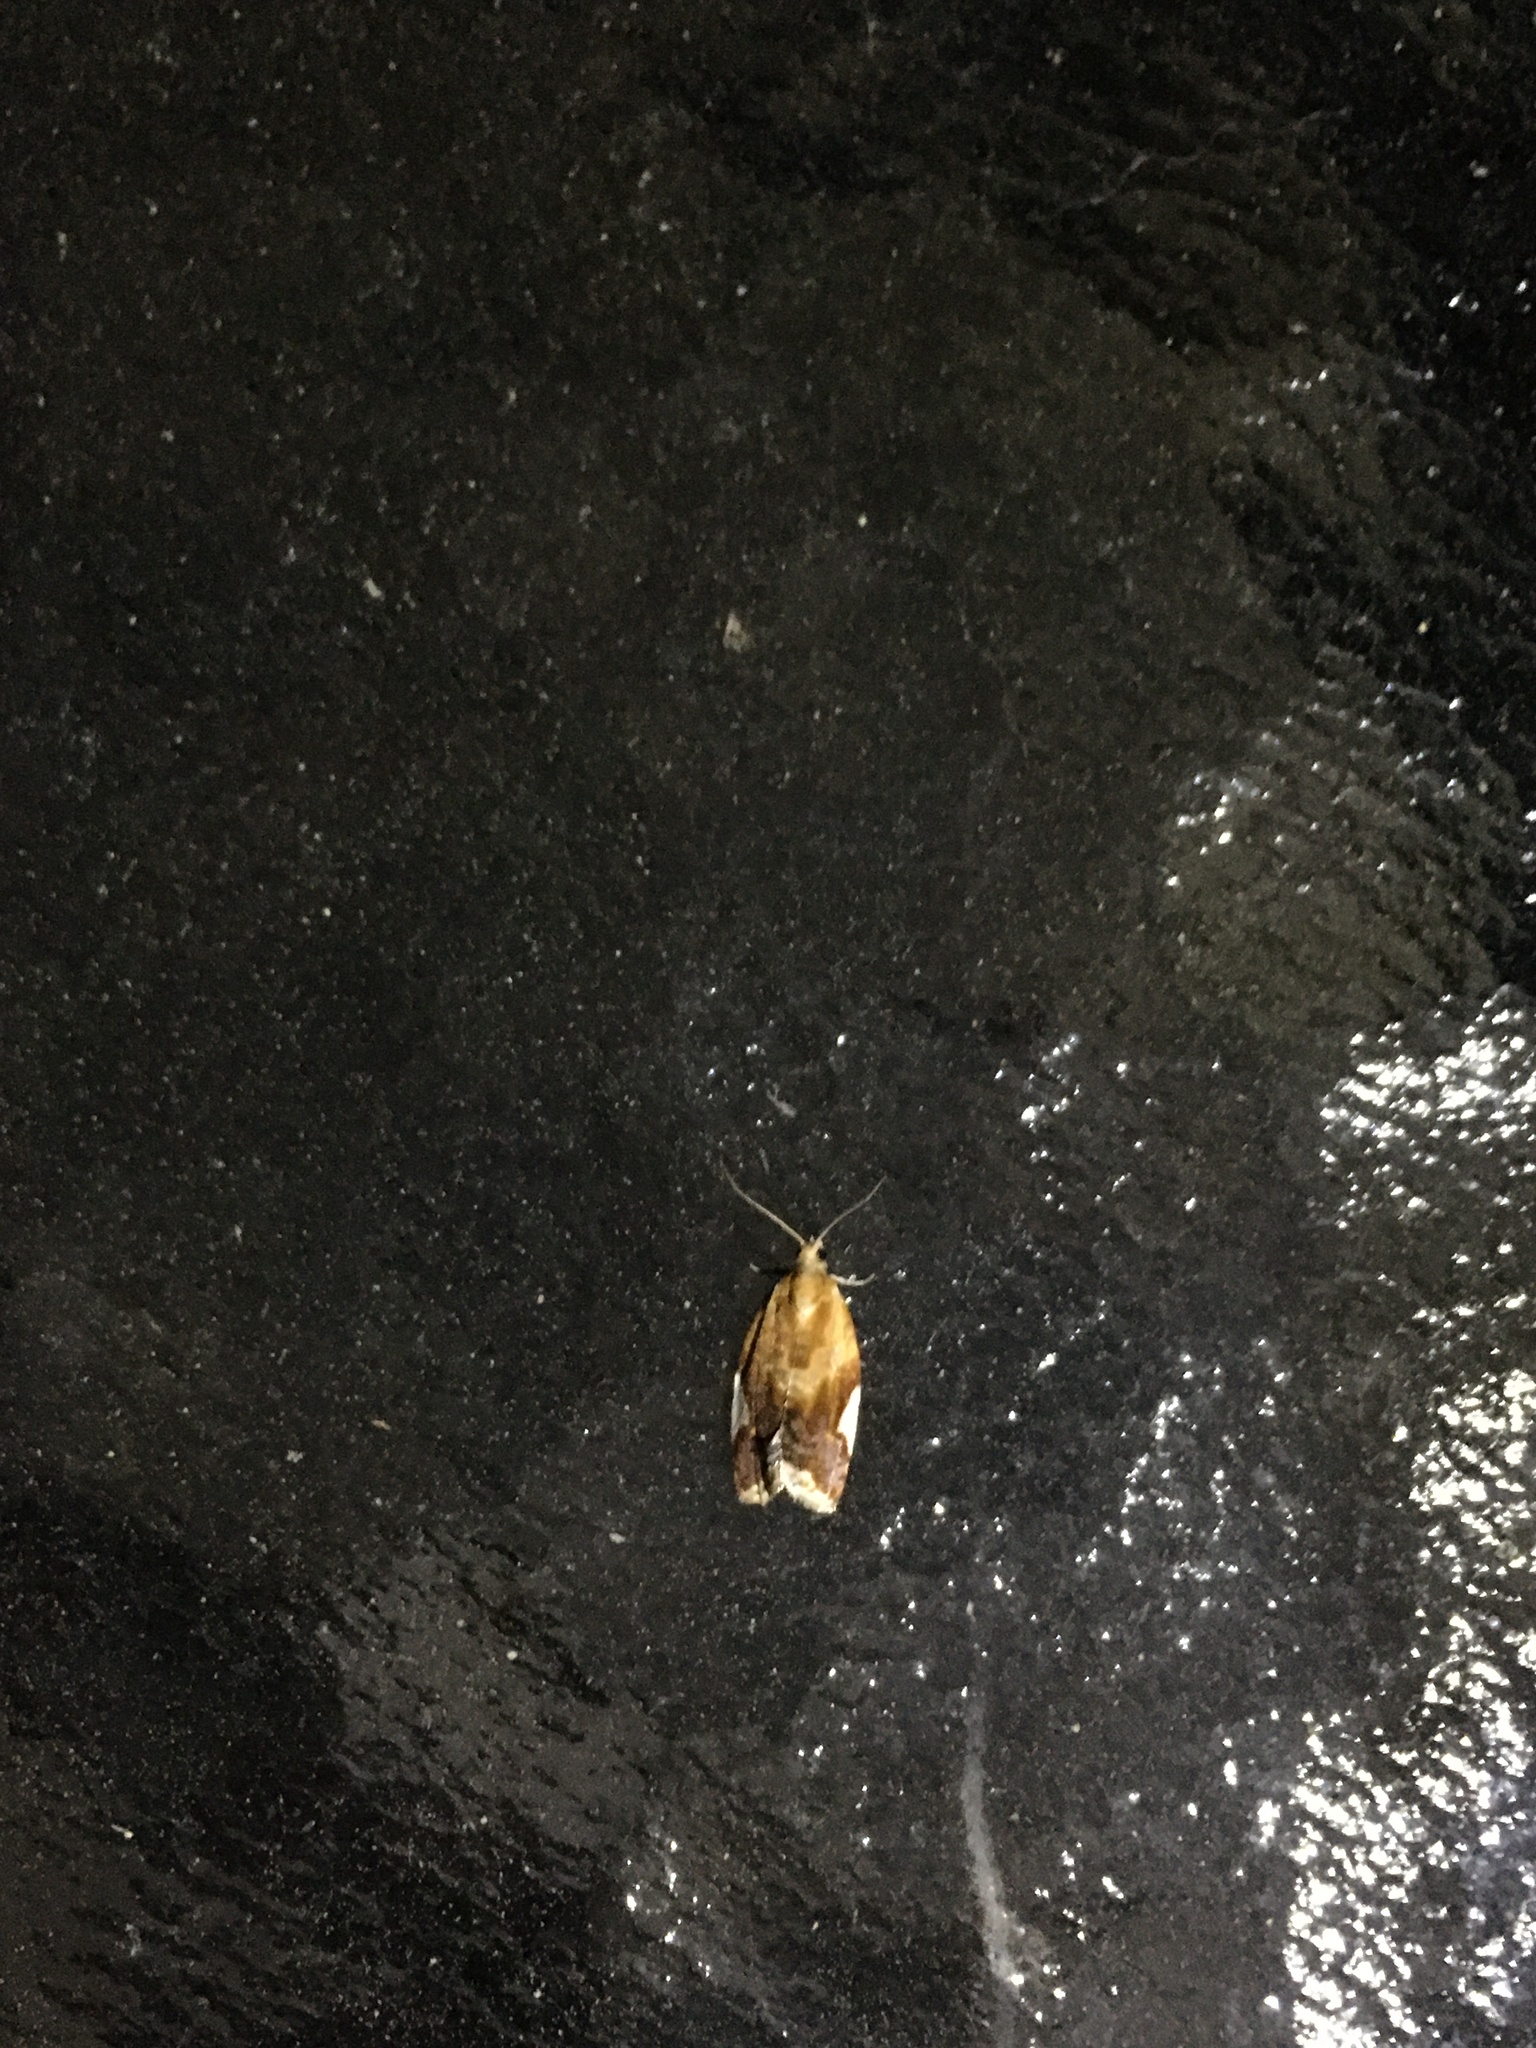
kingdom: Animalia
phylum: Arthropoda
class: Insecta
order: Lepidoptera
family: Tortricidae
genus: Clepsis
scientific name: Clepsis persicana
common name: White triangle tortrix
